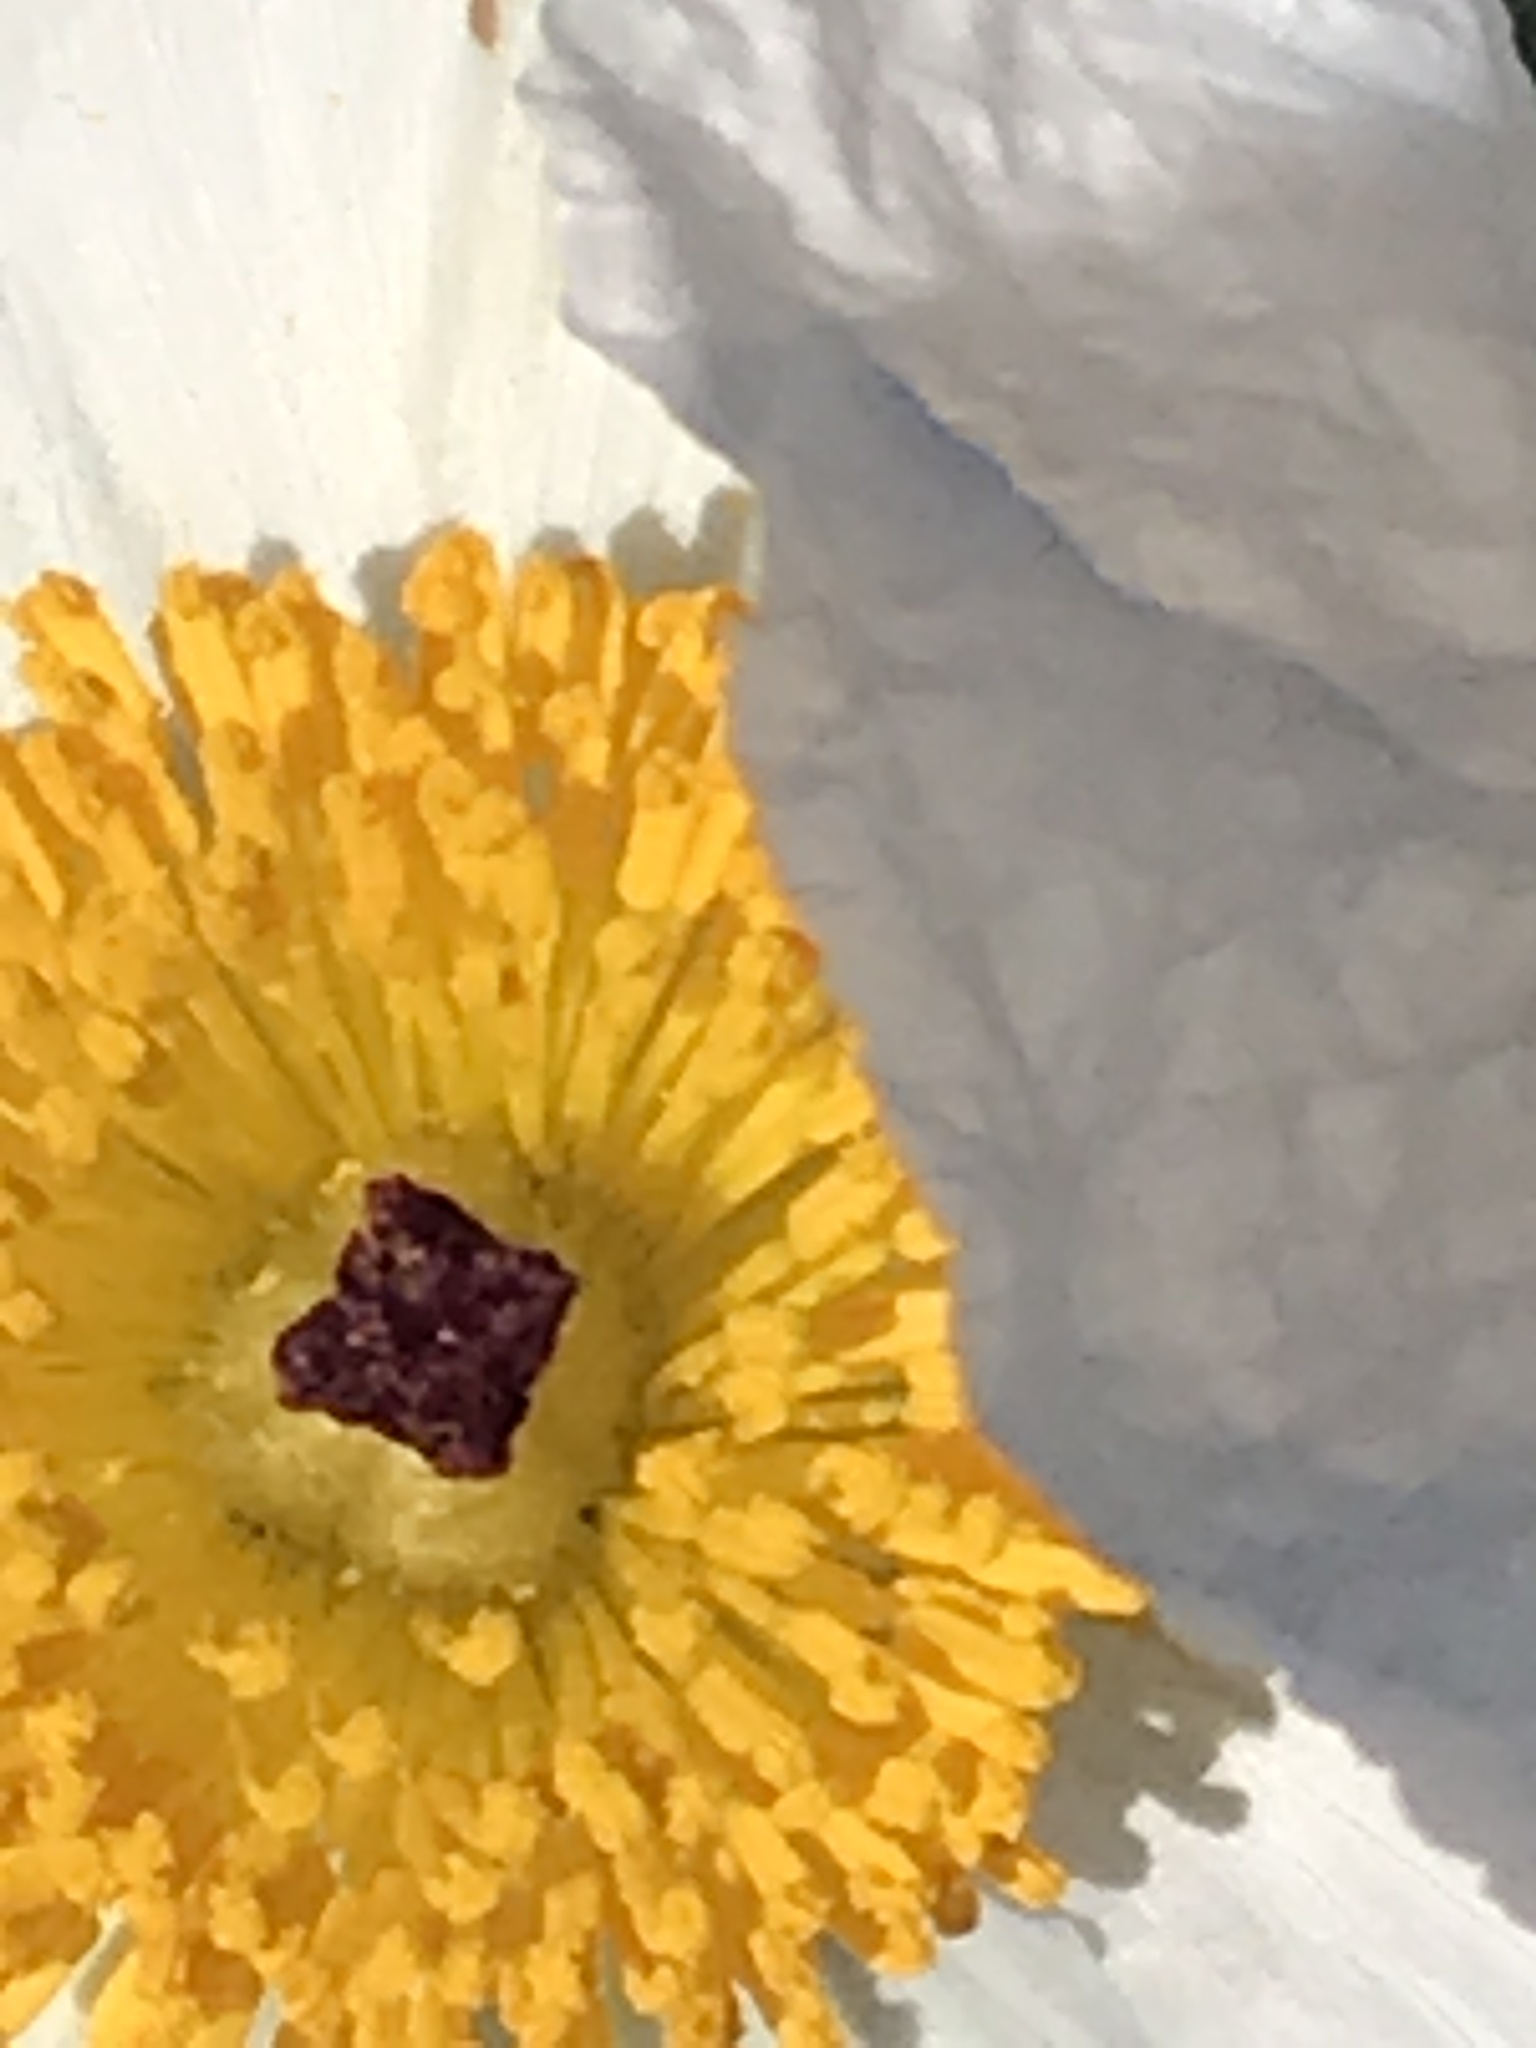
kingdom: Plantae
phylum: Tracheophyta
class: Magnoliopsida
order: Ranunculales
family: Papaveraceae
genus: Argemone
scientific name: Argemone munita
